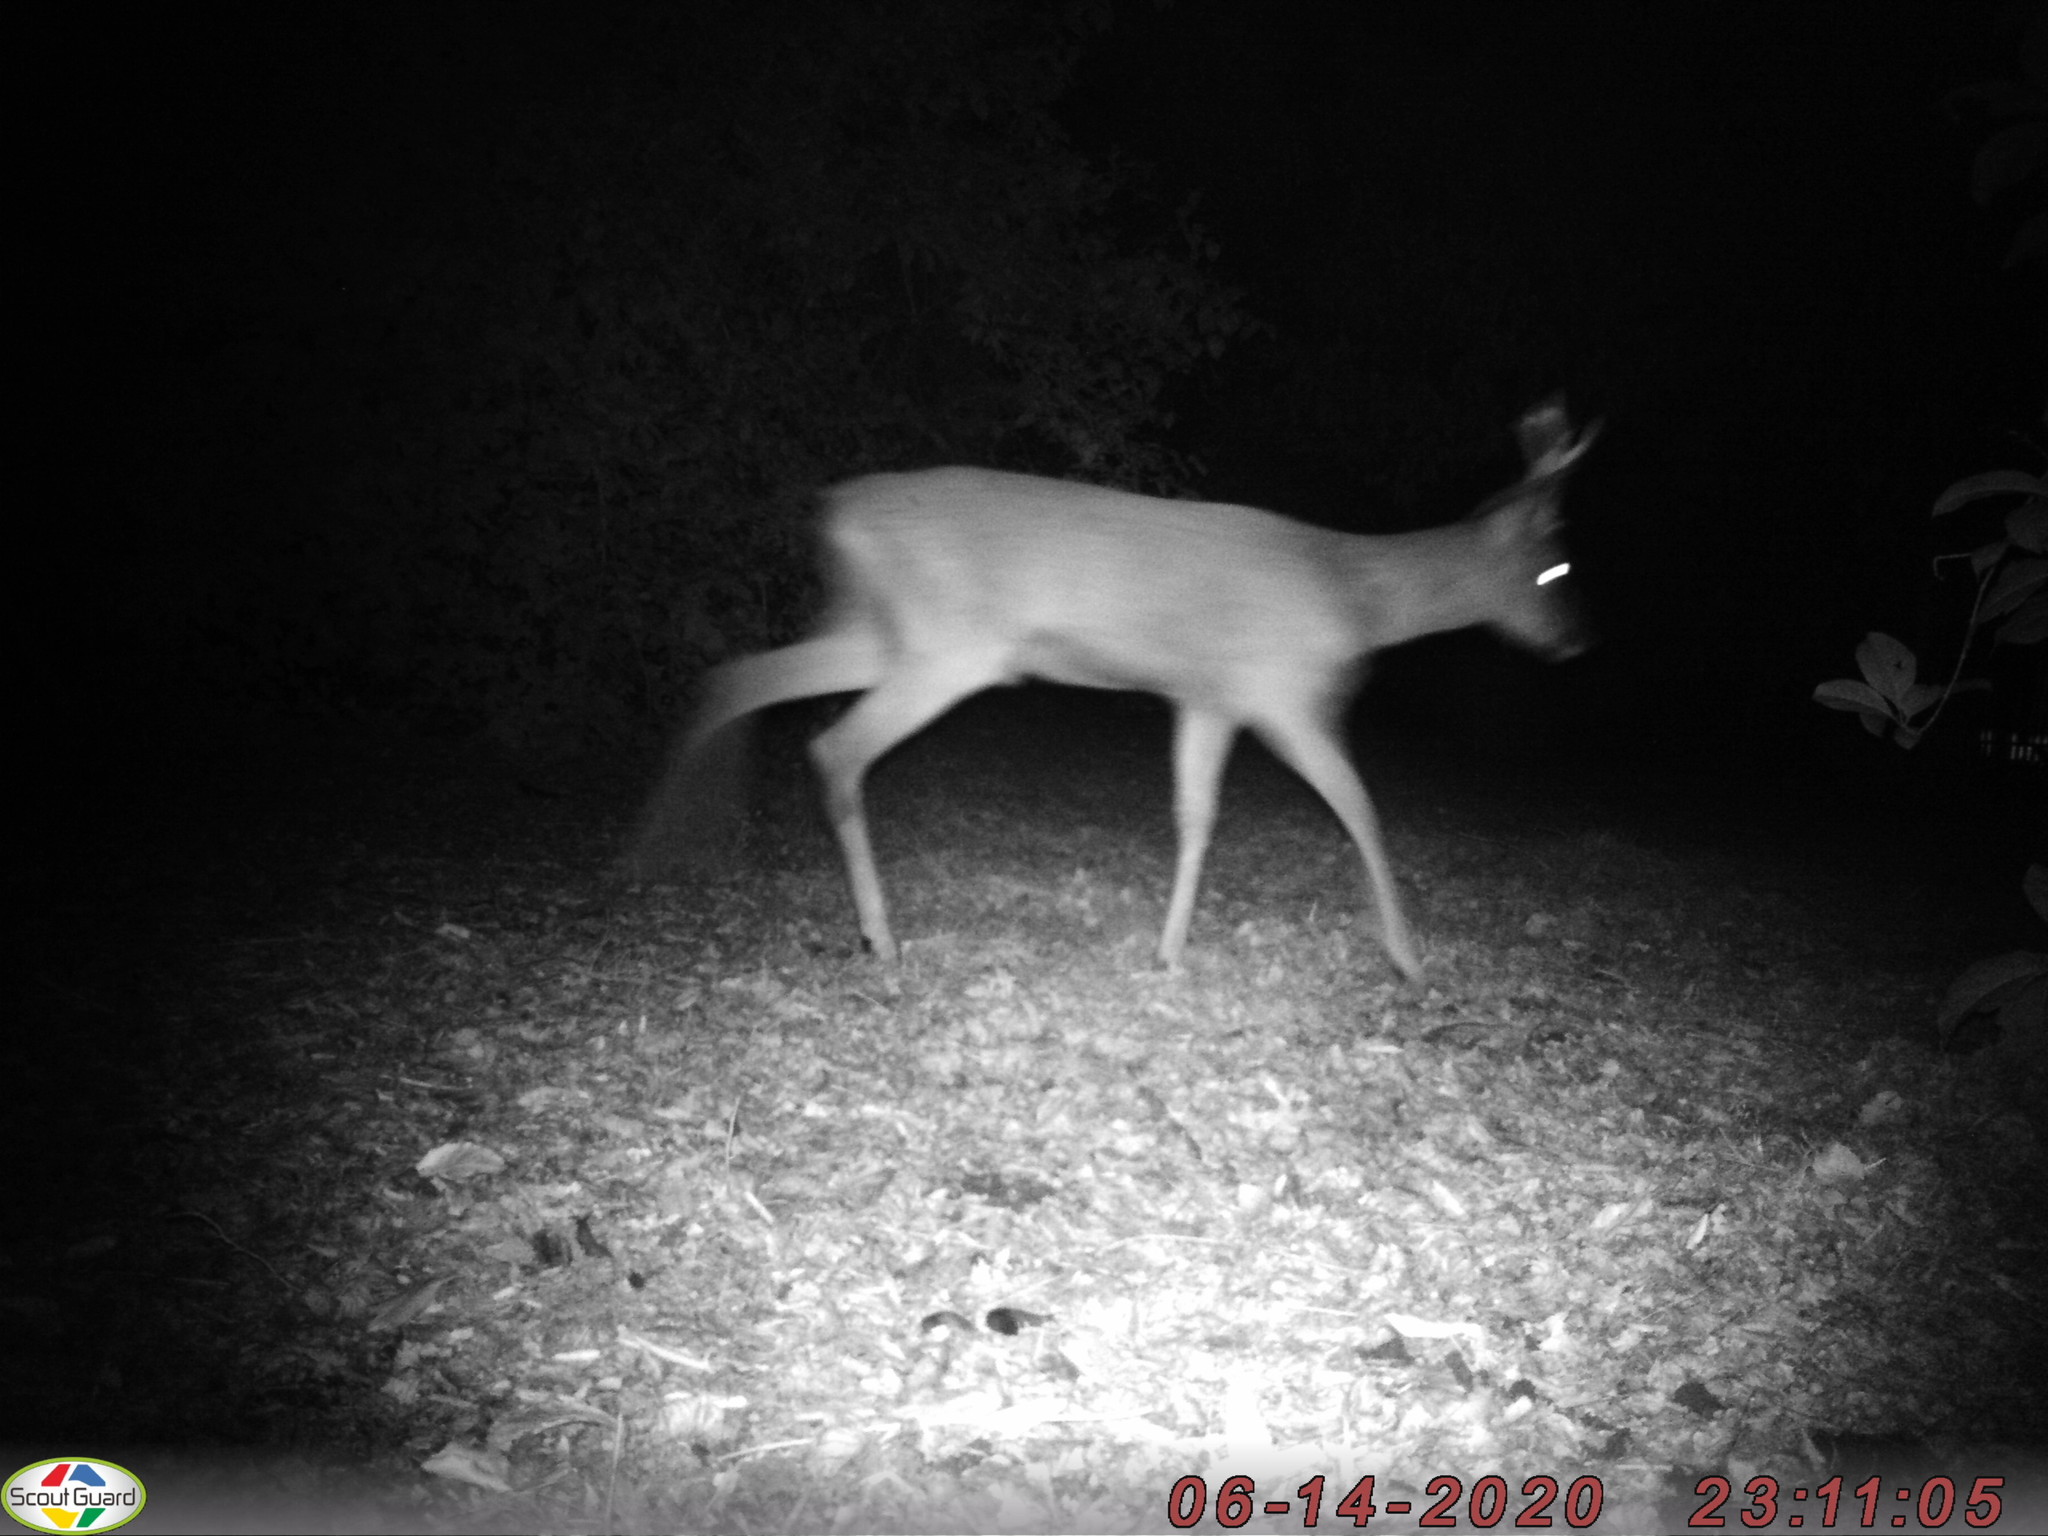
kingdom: Animalia
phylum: Chordata
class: Mammalia
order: Artiodactyla
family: Cervidae
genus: Capreolus
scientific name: Capreolus capreolus
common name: Western roe deer
